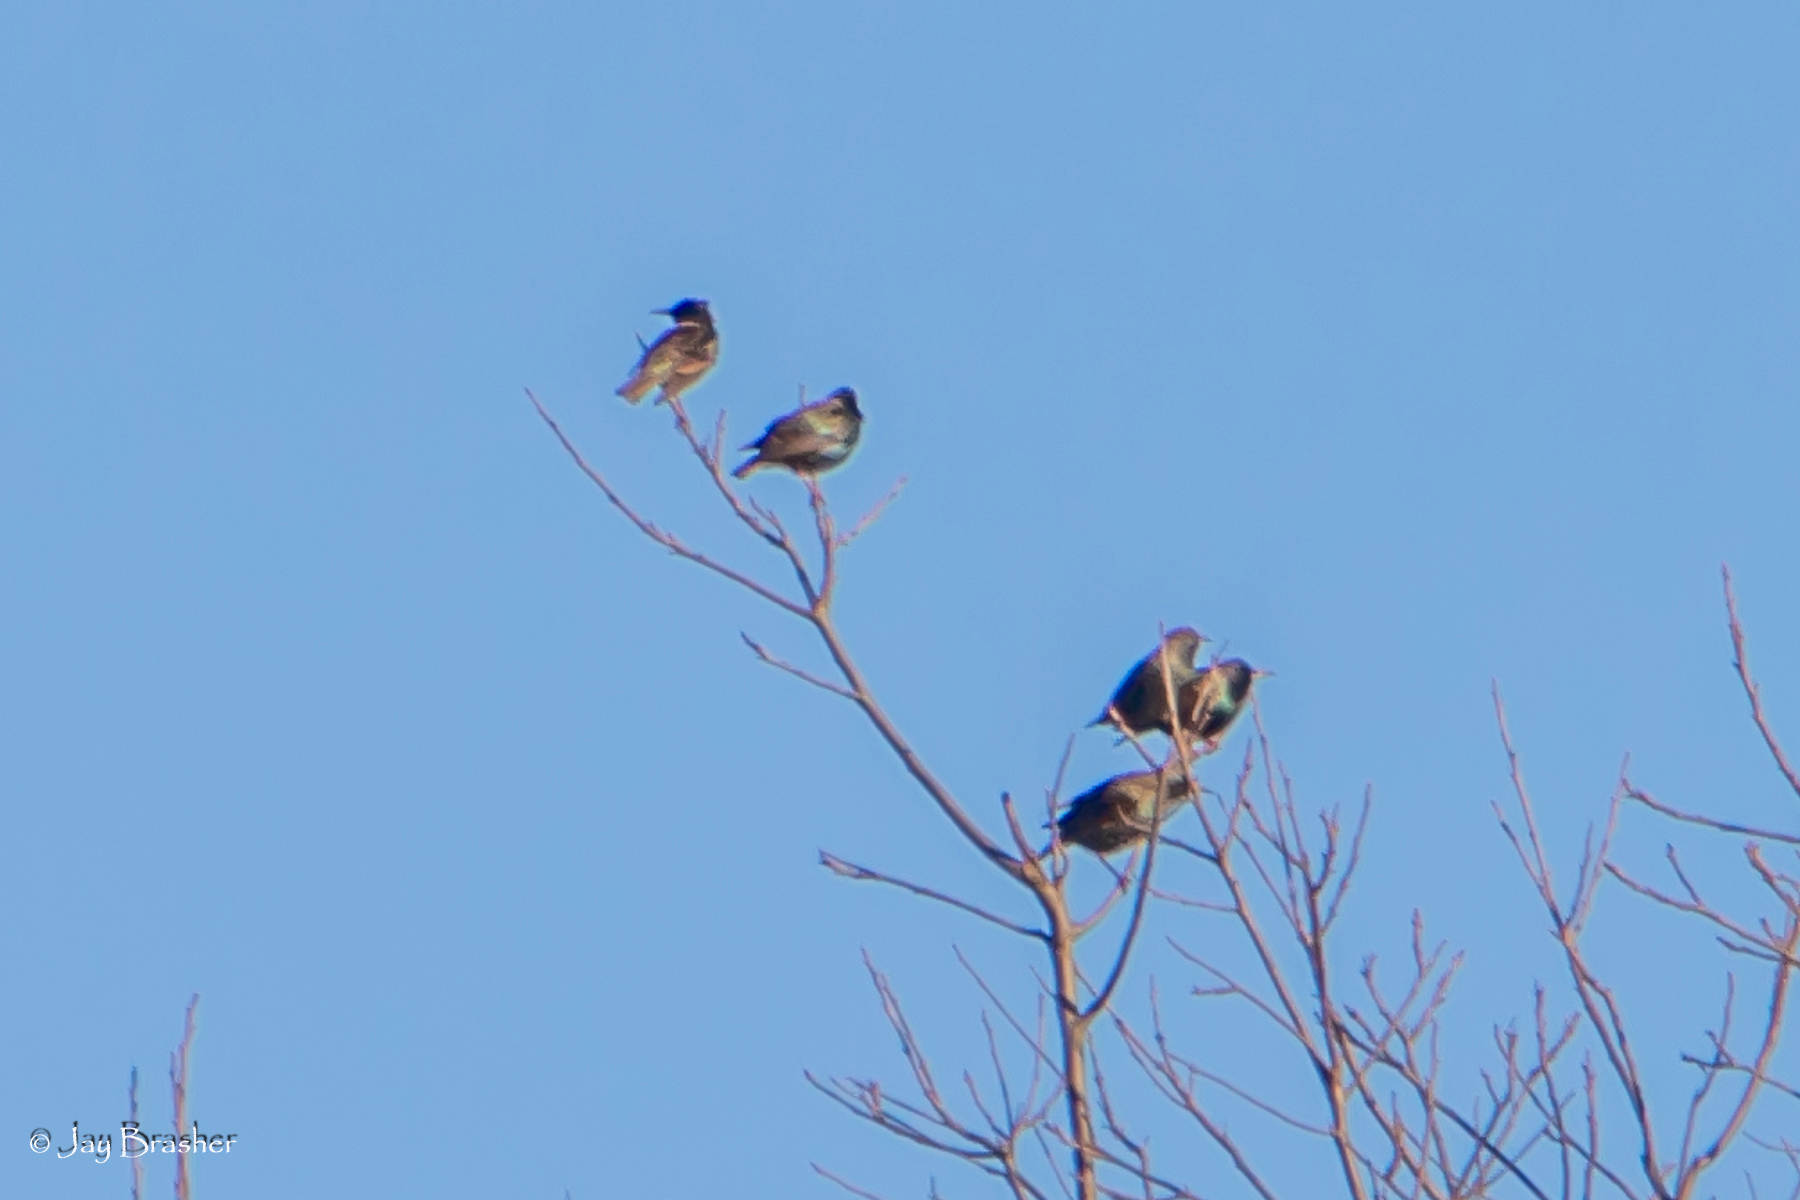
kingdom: Animalia
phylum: Chordata
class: Aves
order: Passeriformes
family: Sturnidae
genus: Sturnus
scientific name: Sturnus vulgaris
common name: Common starling
